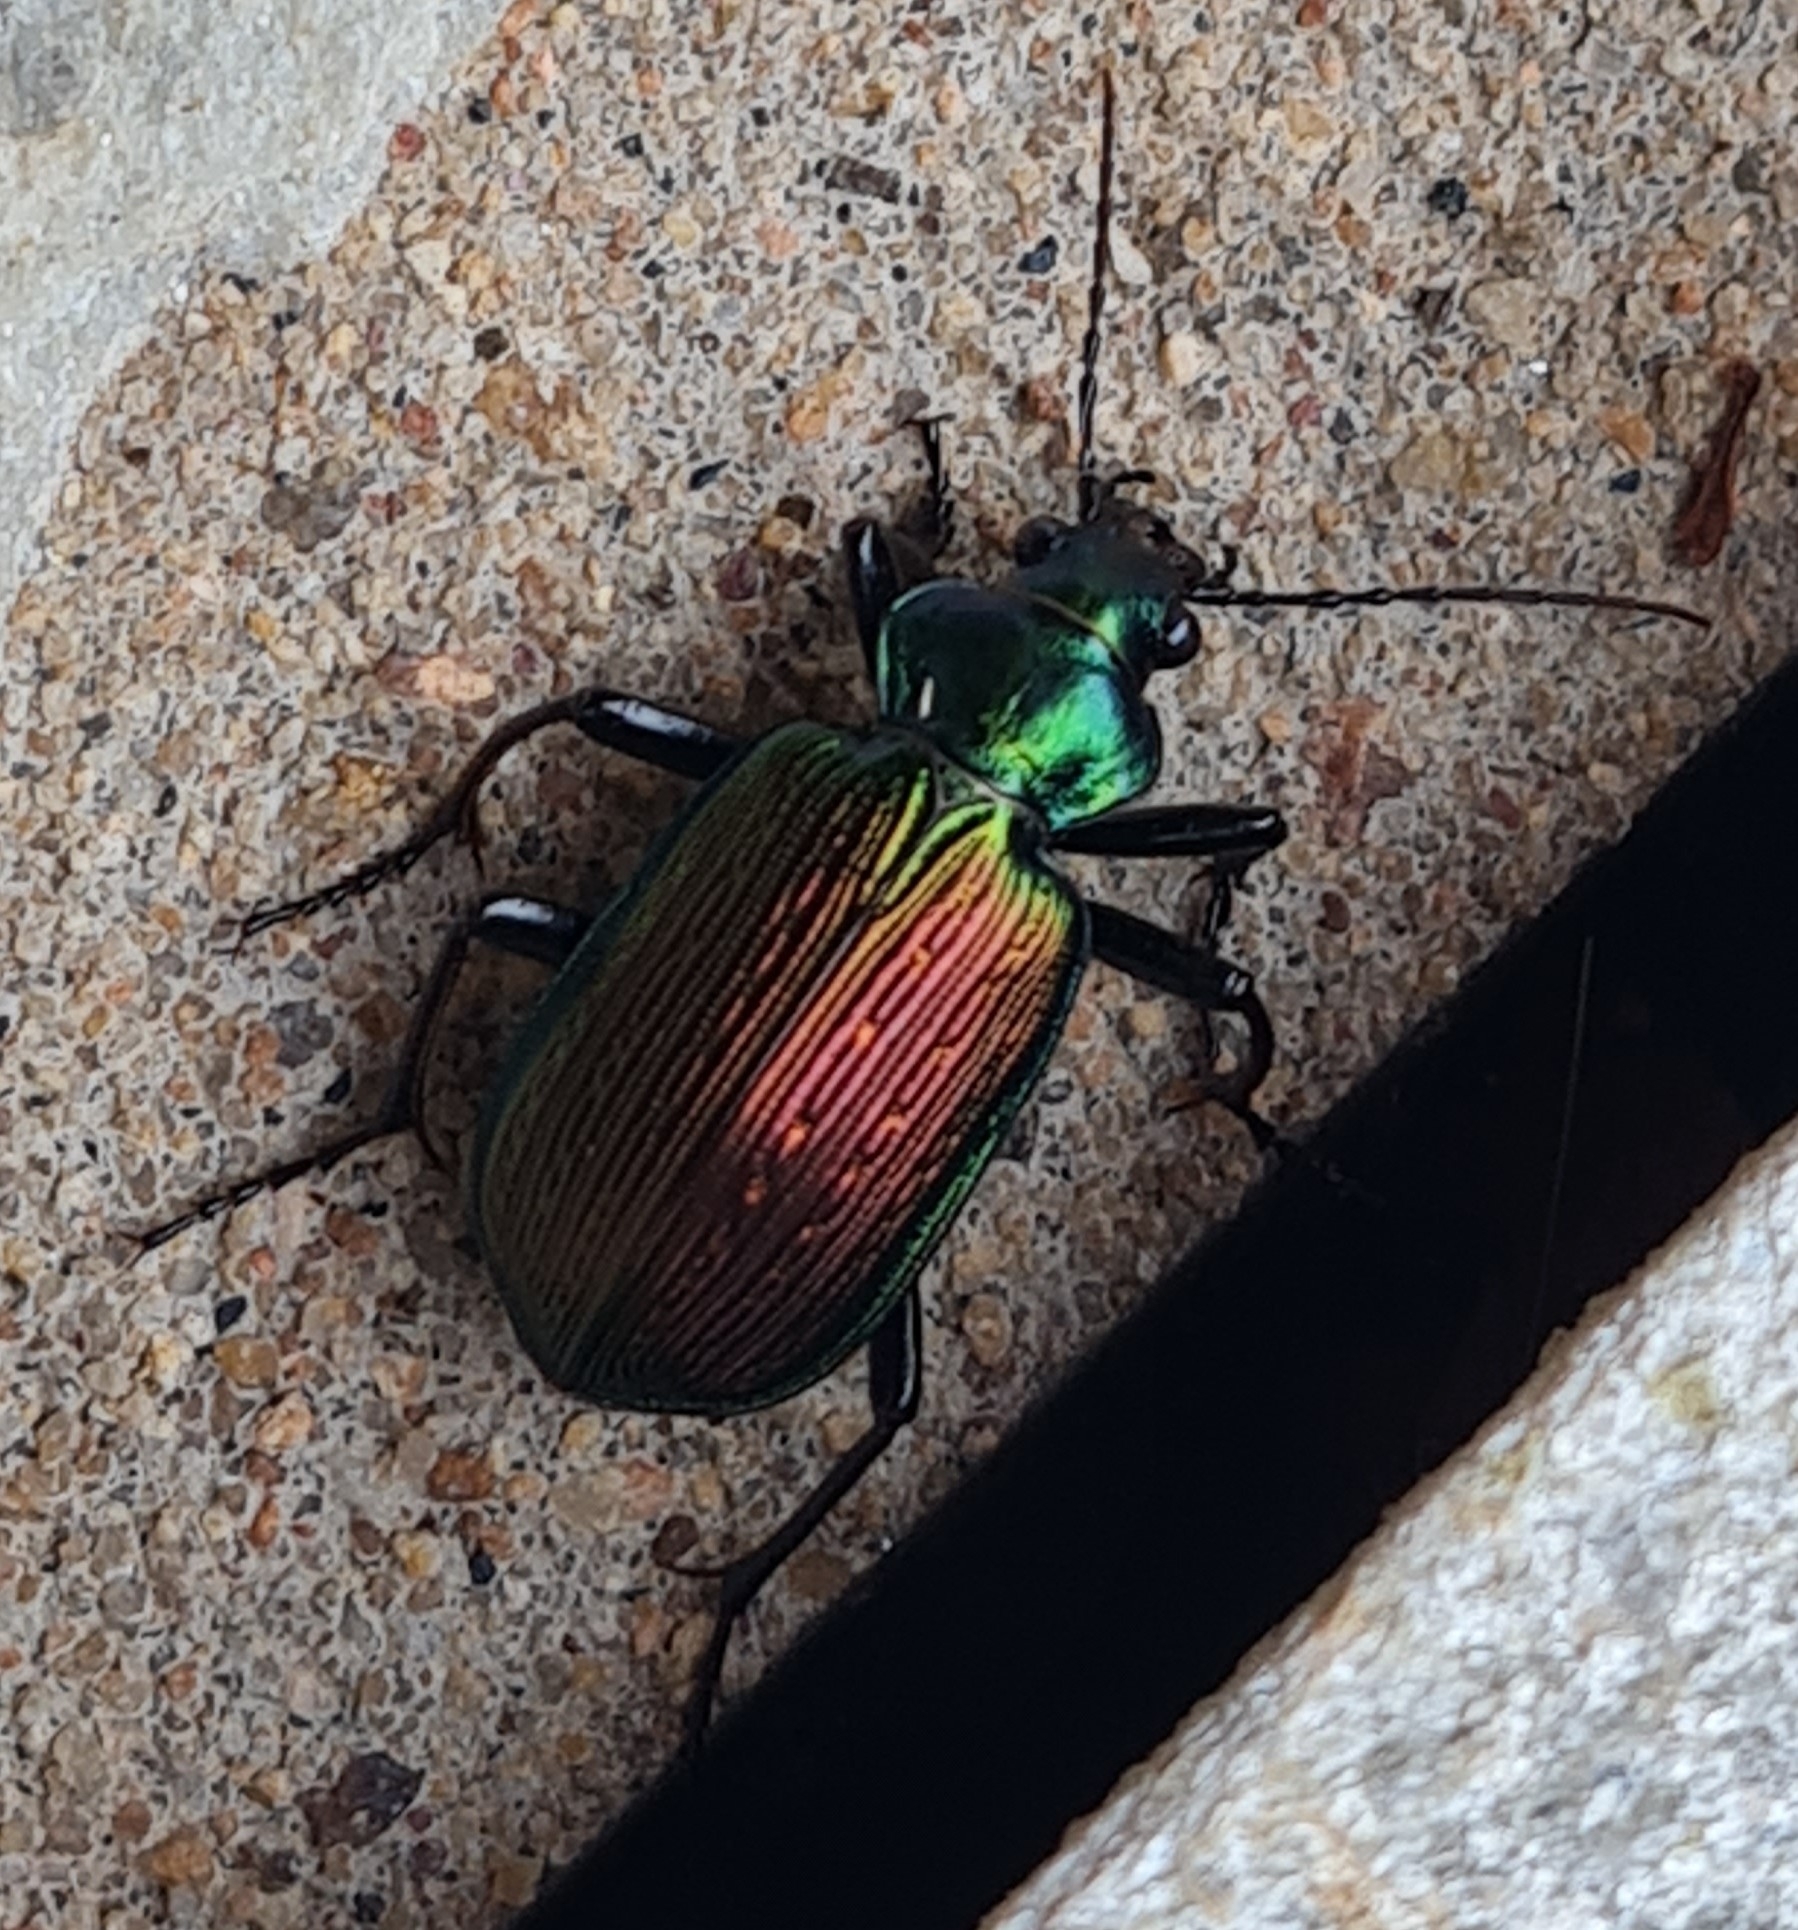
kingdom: Animalia
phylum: Arthropoda
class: Insecta
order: Coleoptera
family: Carabidae
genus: Calosoma
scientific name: Calosoma alternans
